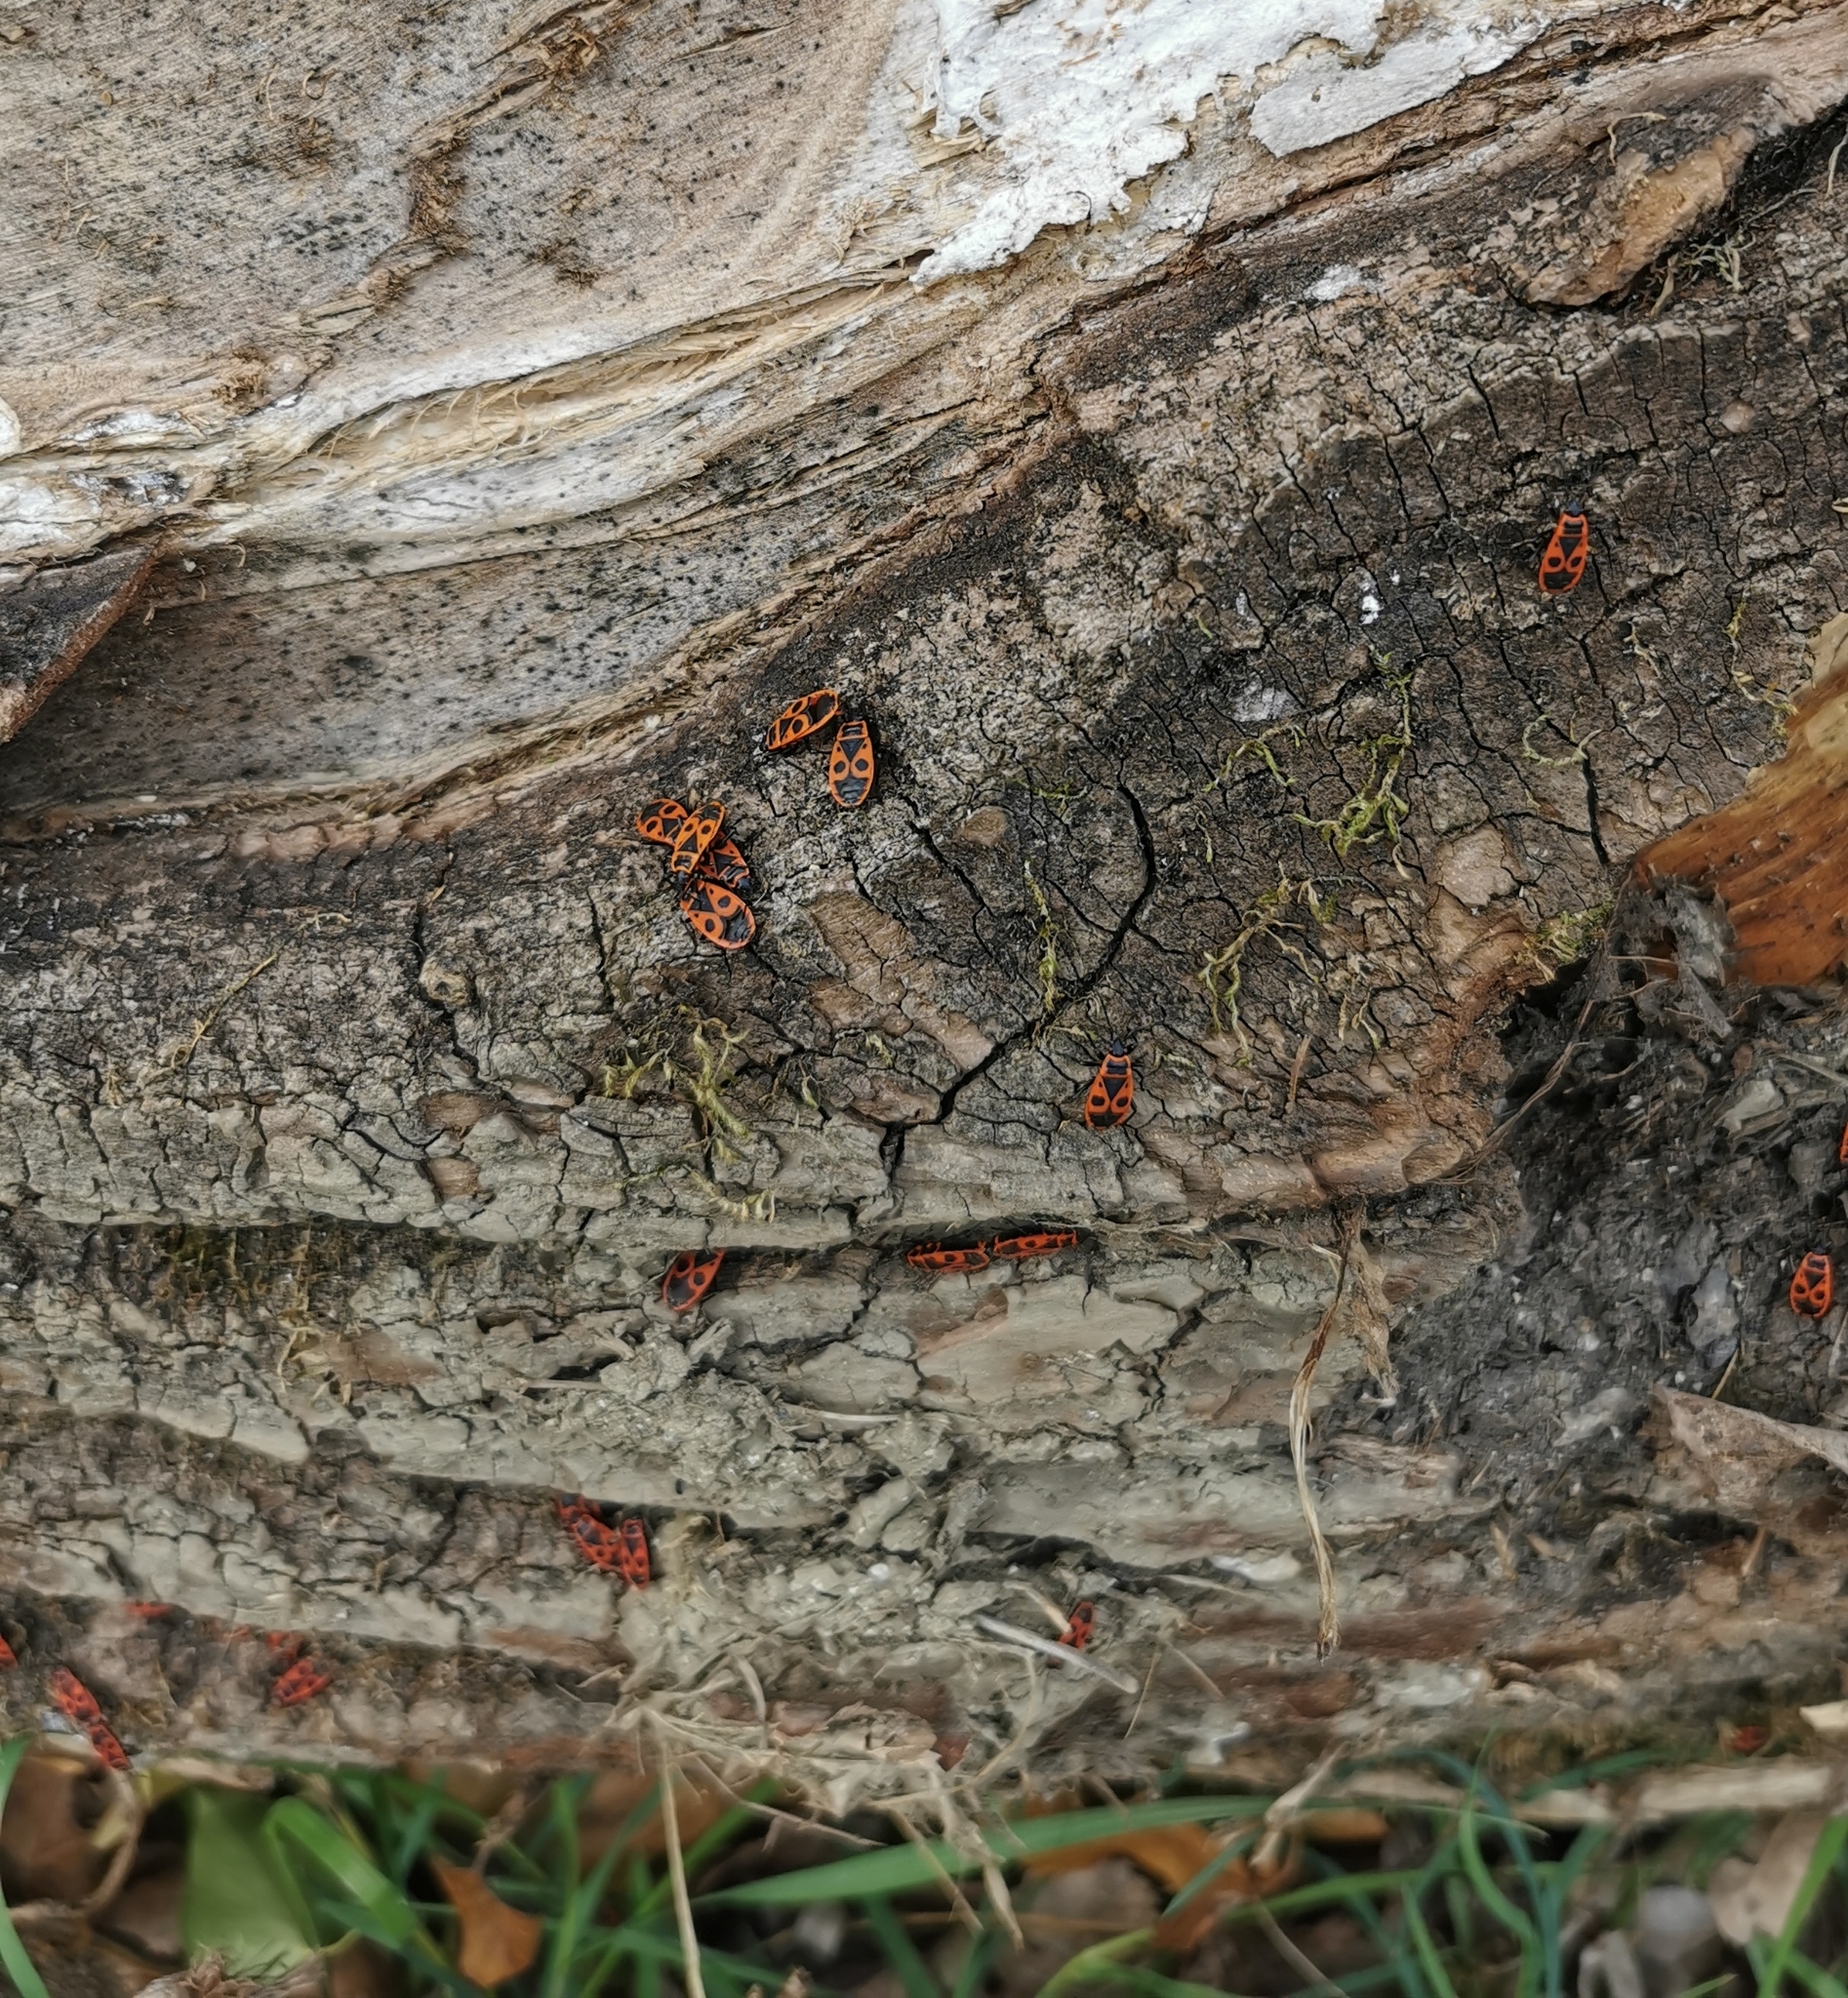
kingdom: Animalia
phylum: Arthropoda
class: Insecta
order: Hemiptera
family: Pyrrhocoridae
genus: Pyrrhocoris
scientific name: Pyrrhocoris apterus
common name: Firebug
